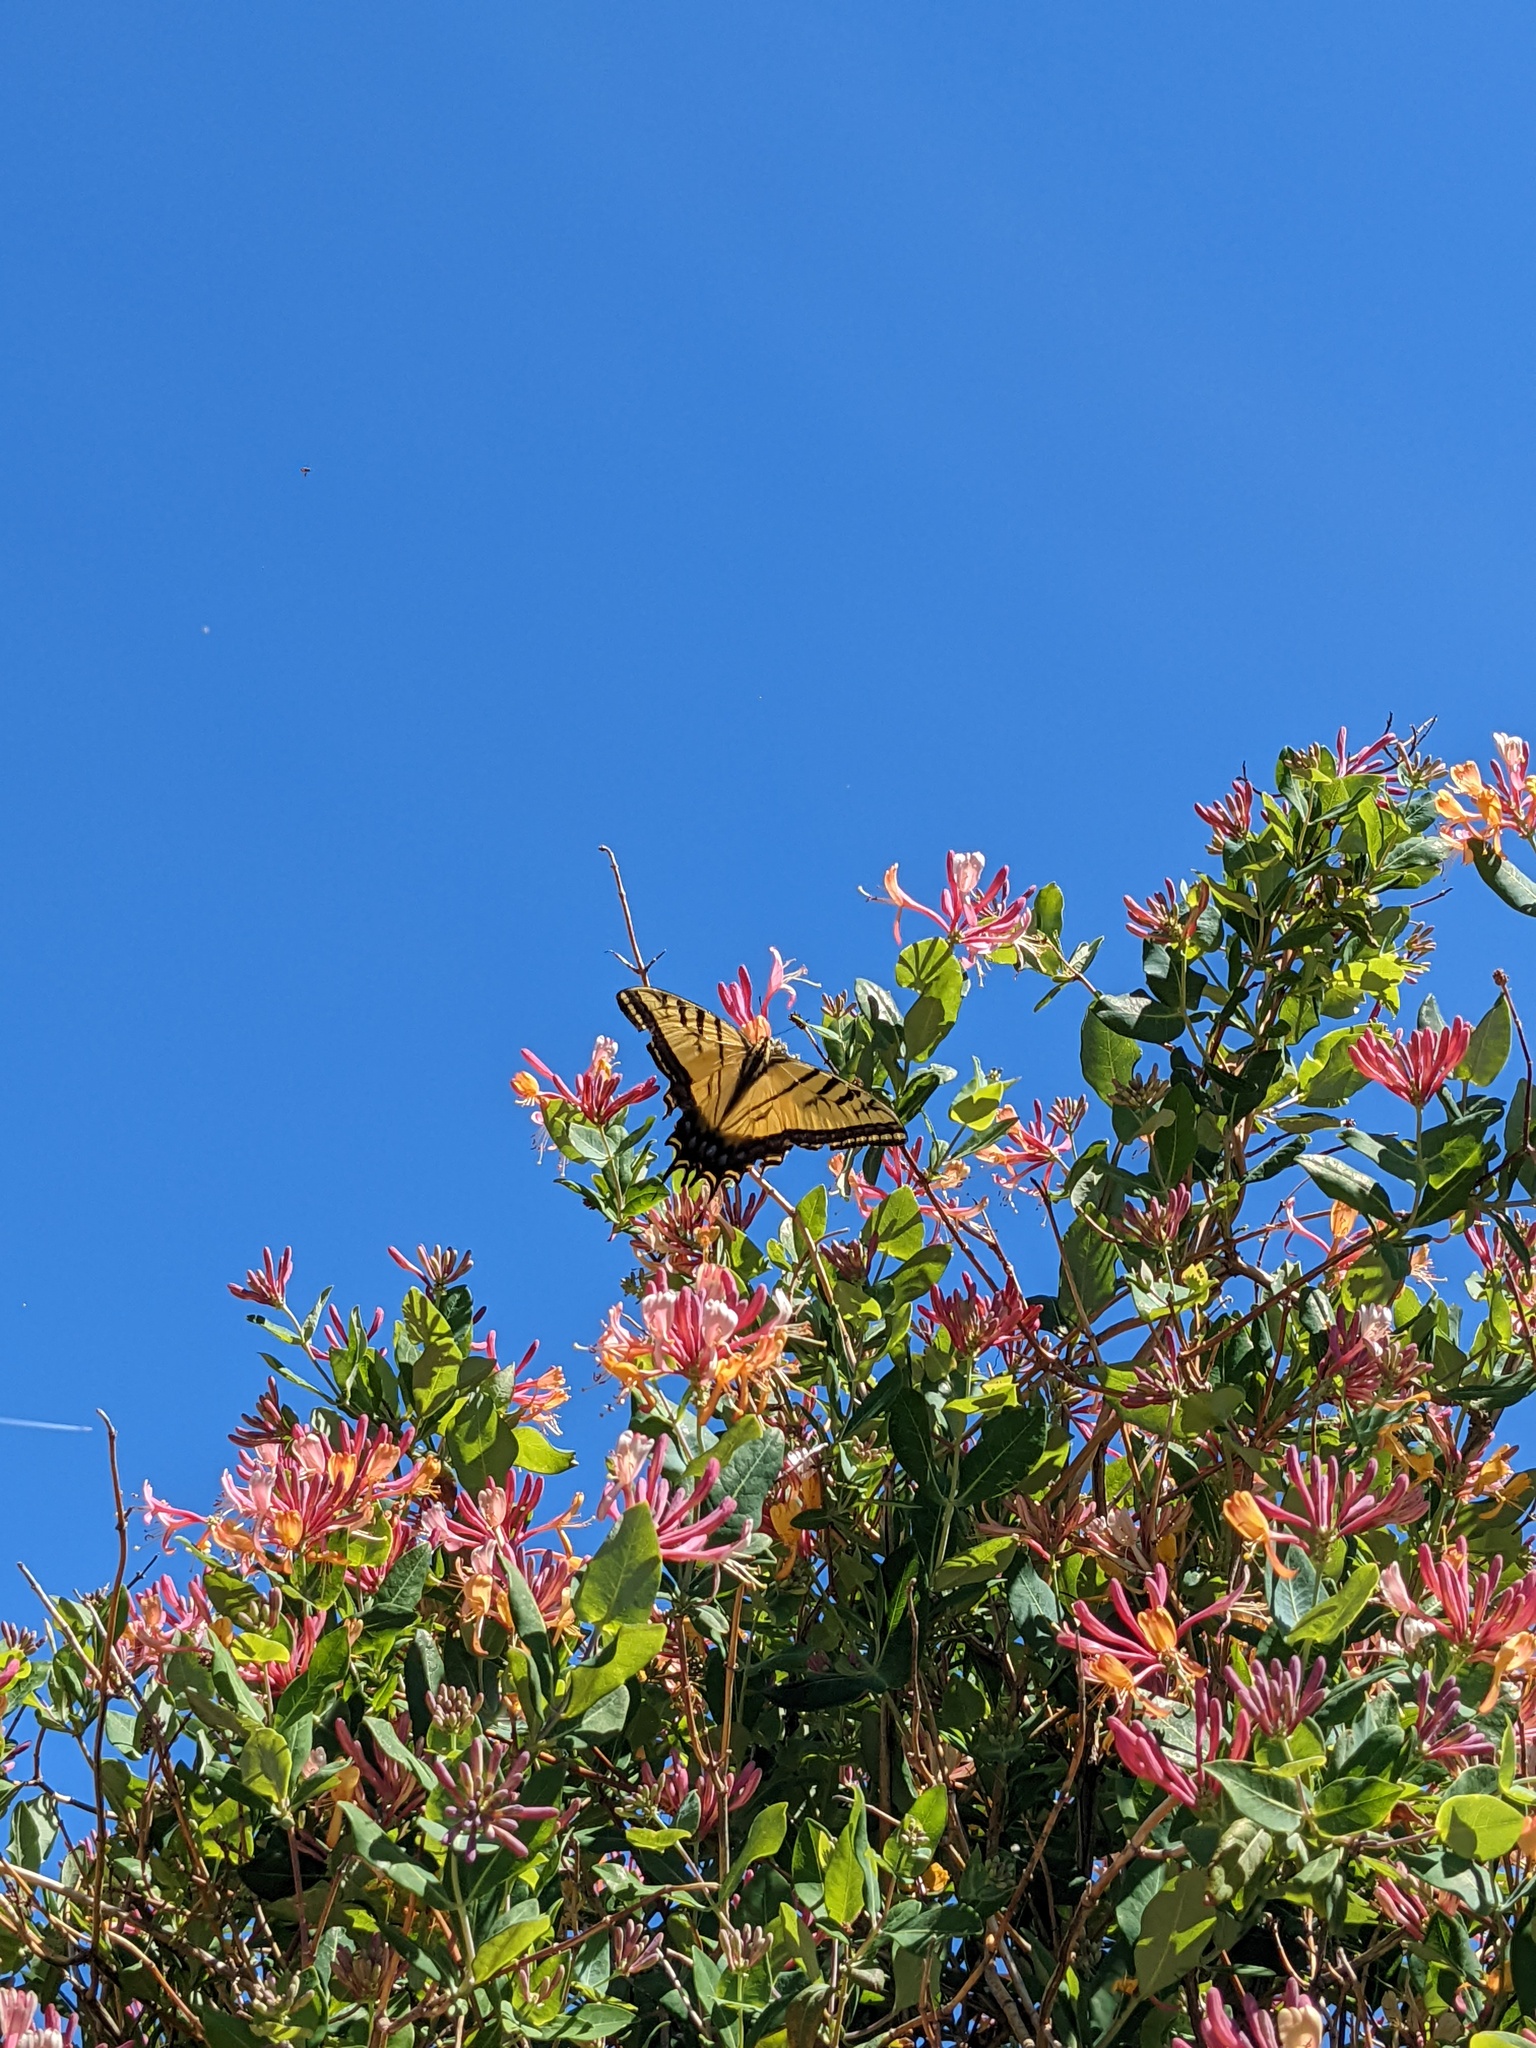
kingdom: Animalia
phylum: Arthropoda
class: Insecta
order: Lepidoptera
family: Papilionidae
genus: Papilio
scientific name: Papilio multicaudata
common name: Two-tailed tiger swallowtail
